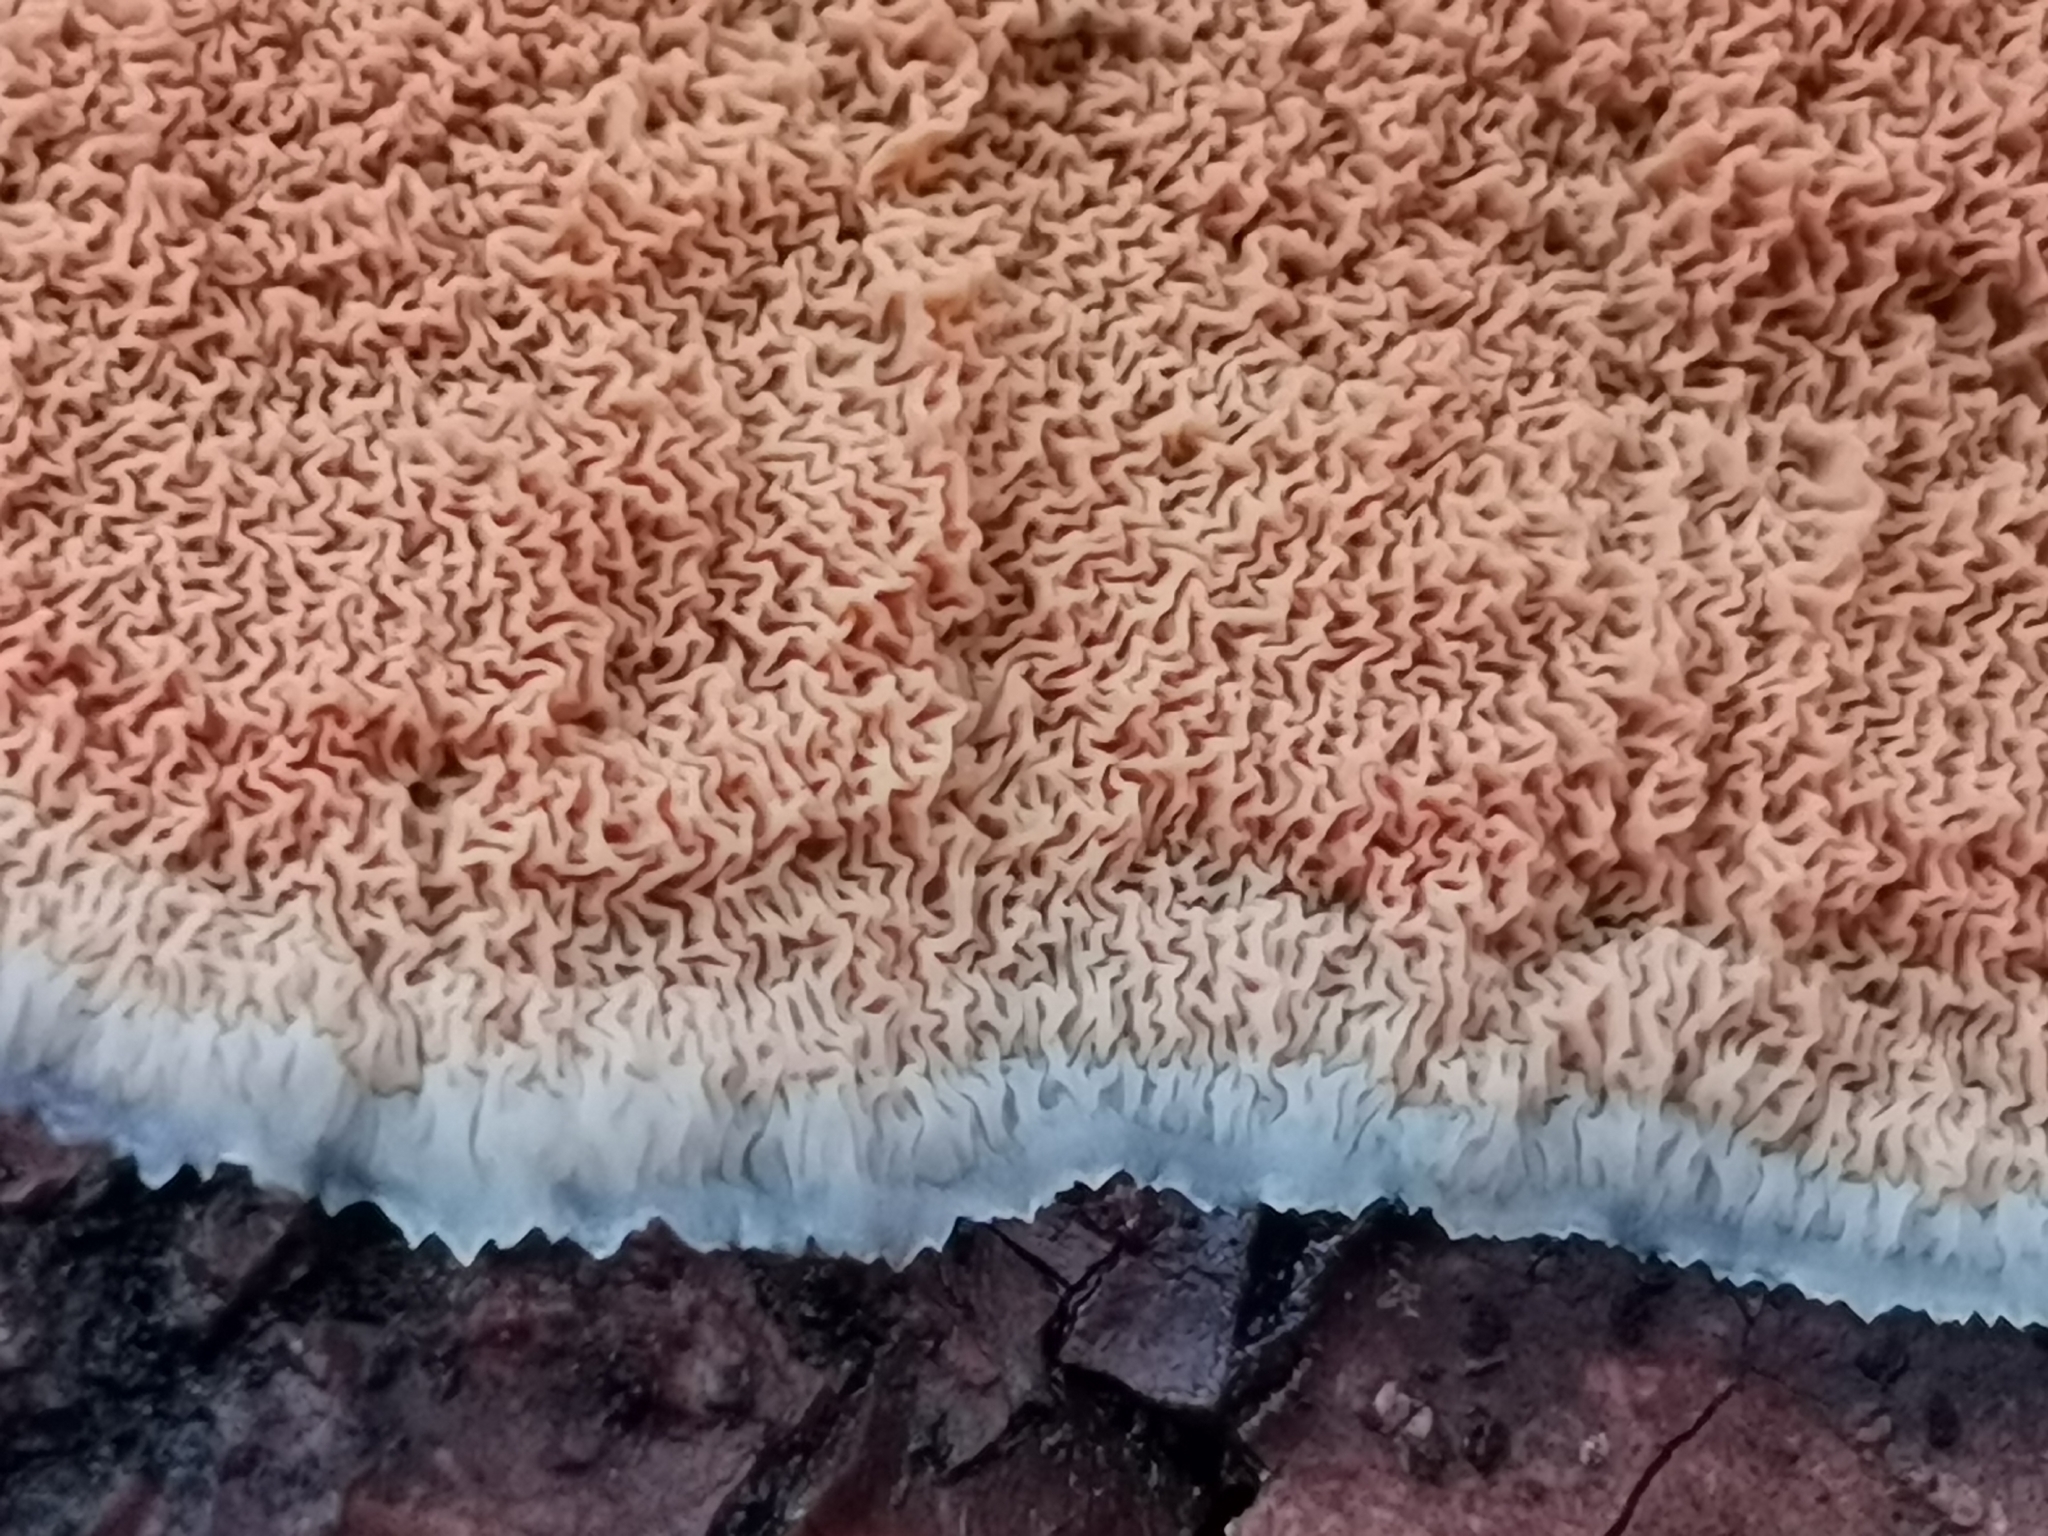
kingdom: Fungi
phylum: Basidiomycota
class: Agaricomycetes
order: Polyporales
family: Meruliaceae
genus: Phlebia
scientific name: Phlebia tremellosa
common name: Jelly rot
